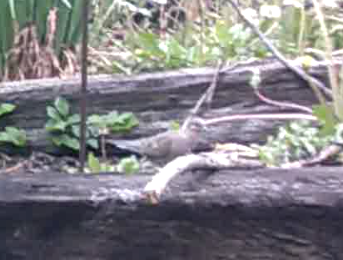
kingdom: Animalia
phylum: Chordata
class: Aves
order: Columbiformes
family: Columbidae
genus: Zenaida
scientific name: Zenaida macroura
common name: Mourning dove
